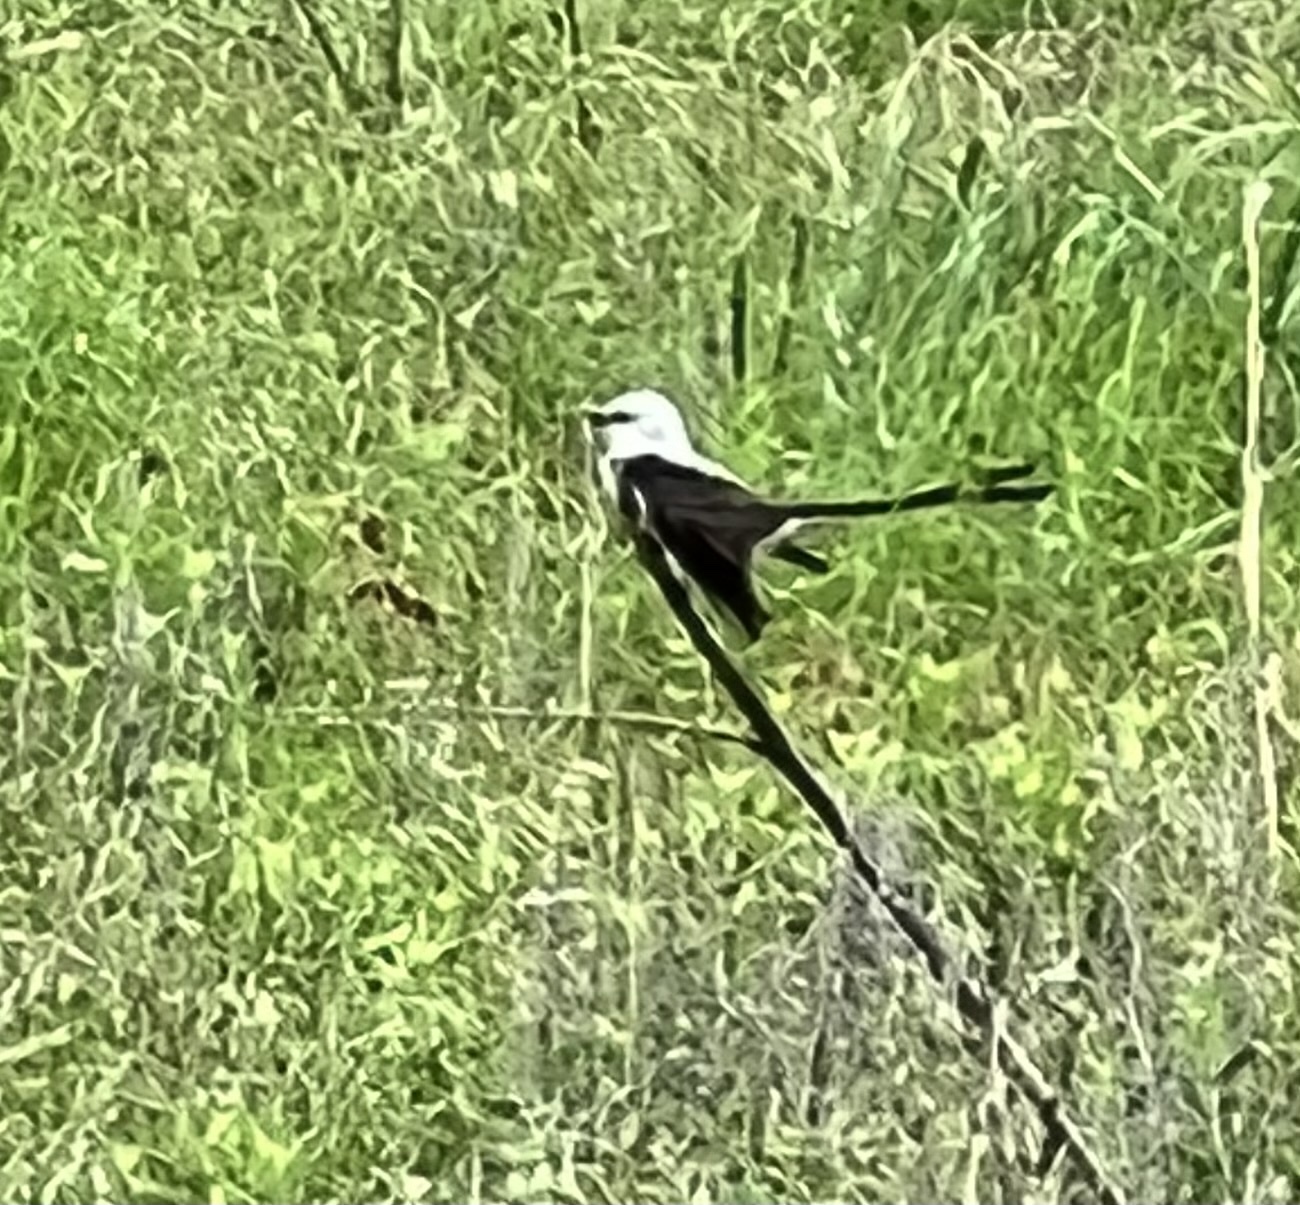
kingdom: Animalia
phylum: Chordata
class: Aves
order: Passeriformes
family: Tyrannidae
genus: Tyrannus
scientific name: Tyrannus forficatus
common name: Scissor-tailed flycatcher
